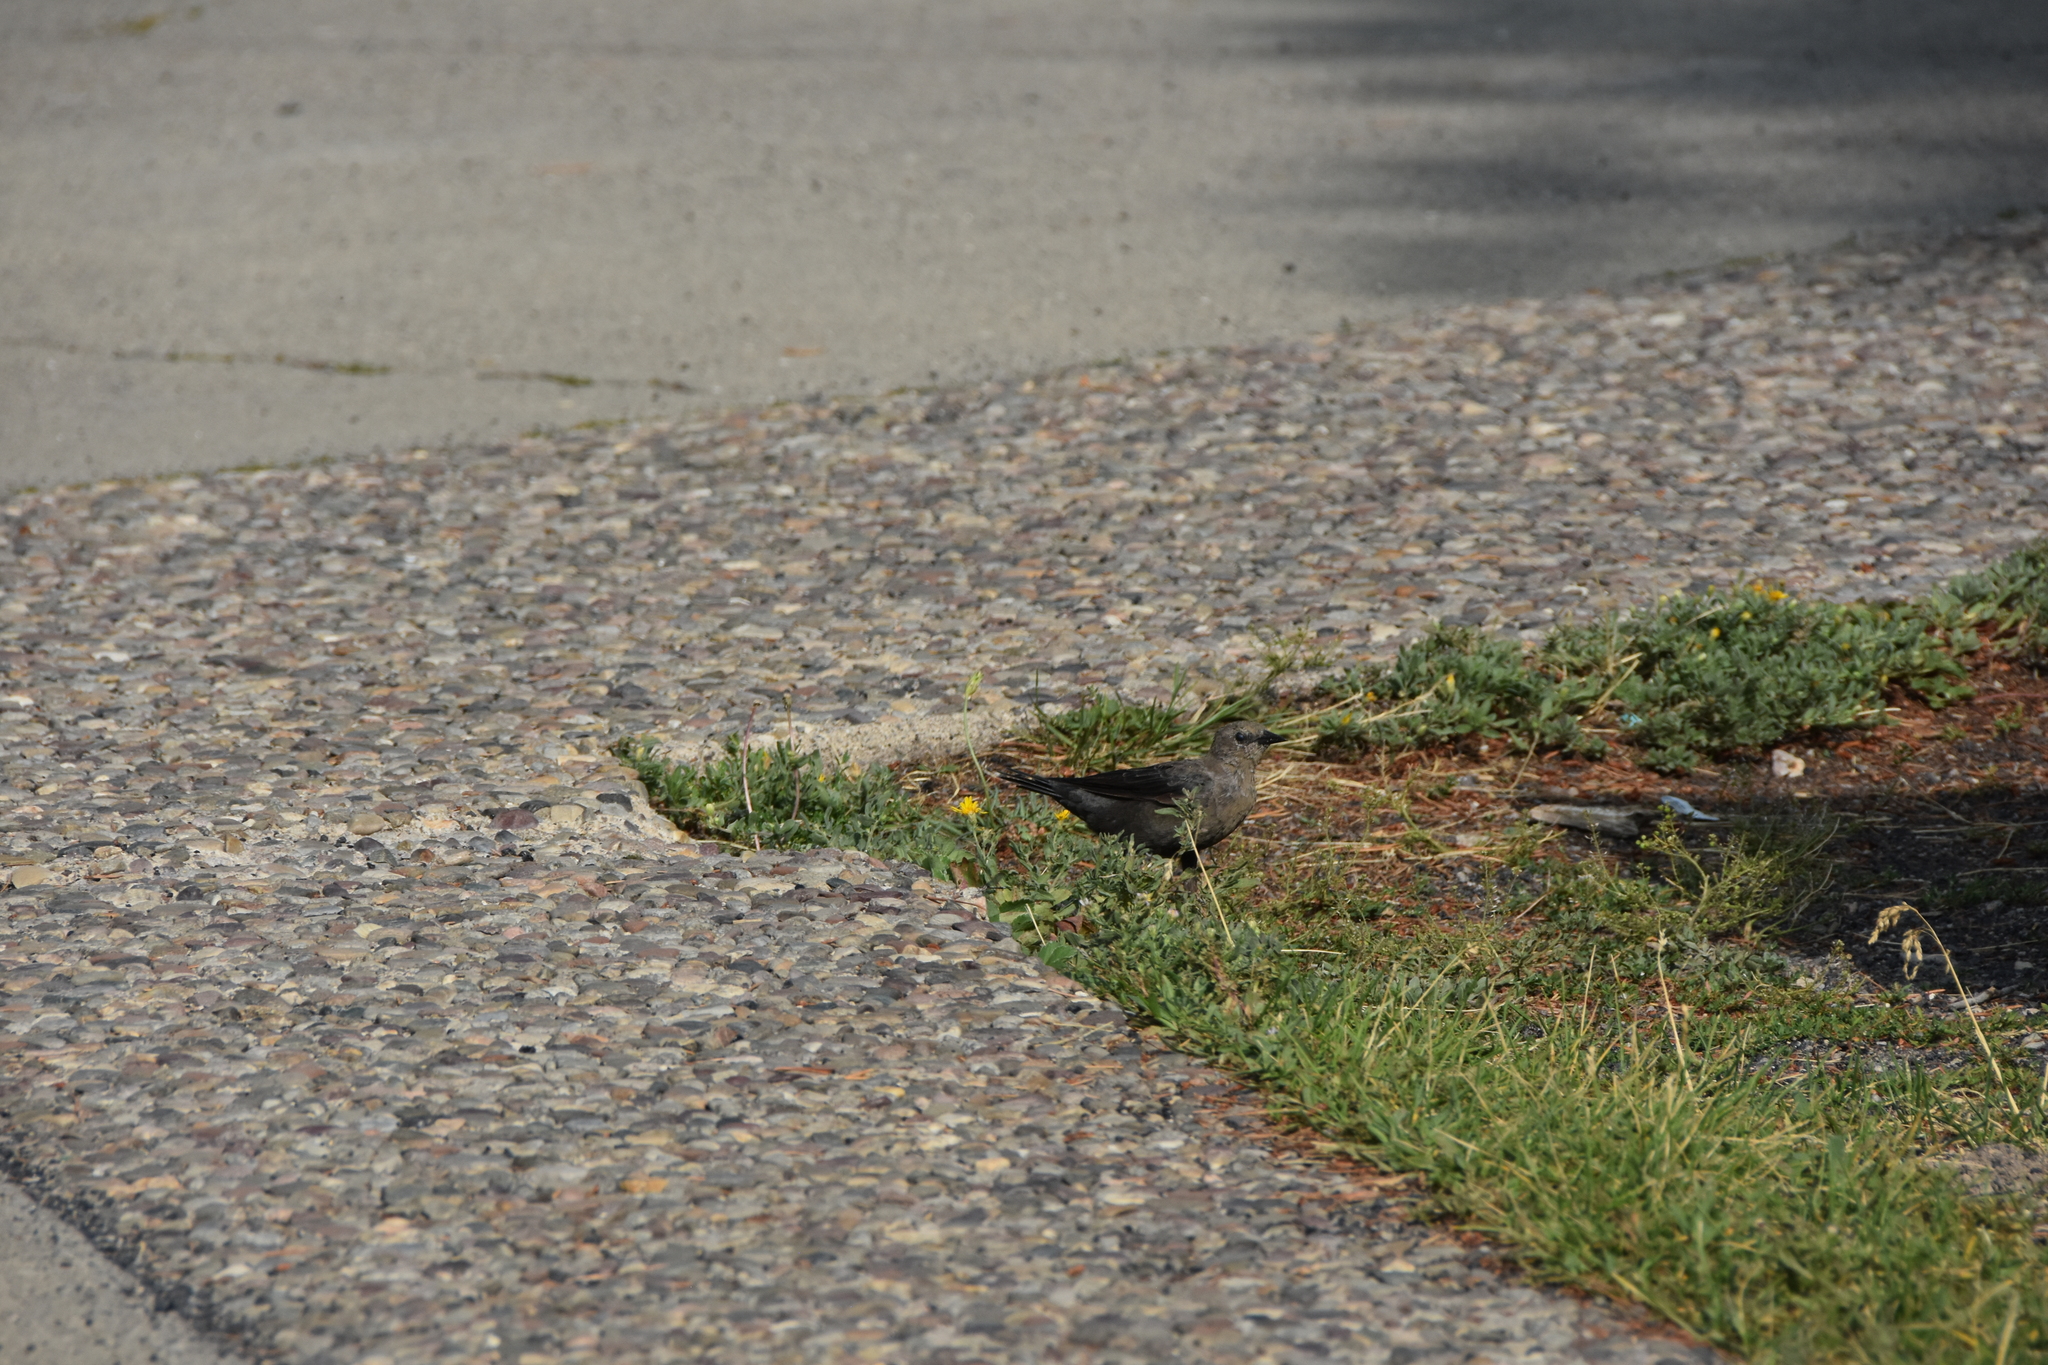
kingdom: Animalia
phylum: Chordata
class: Aves
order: Passeriformes
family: Icteridae
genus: Euphagus
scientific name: Euphagus cyanocephalus
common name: Brewer's blackbird
